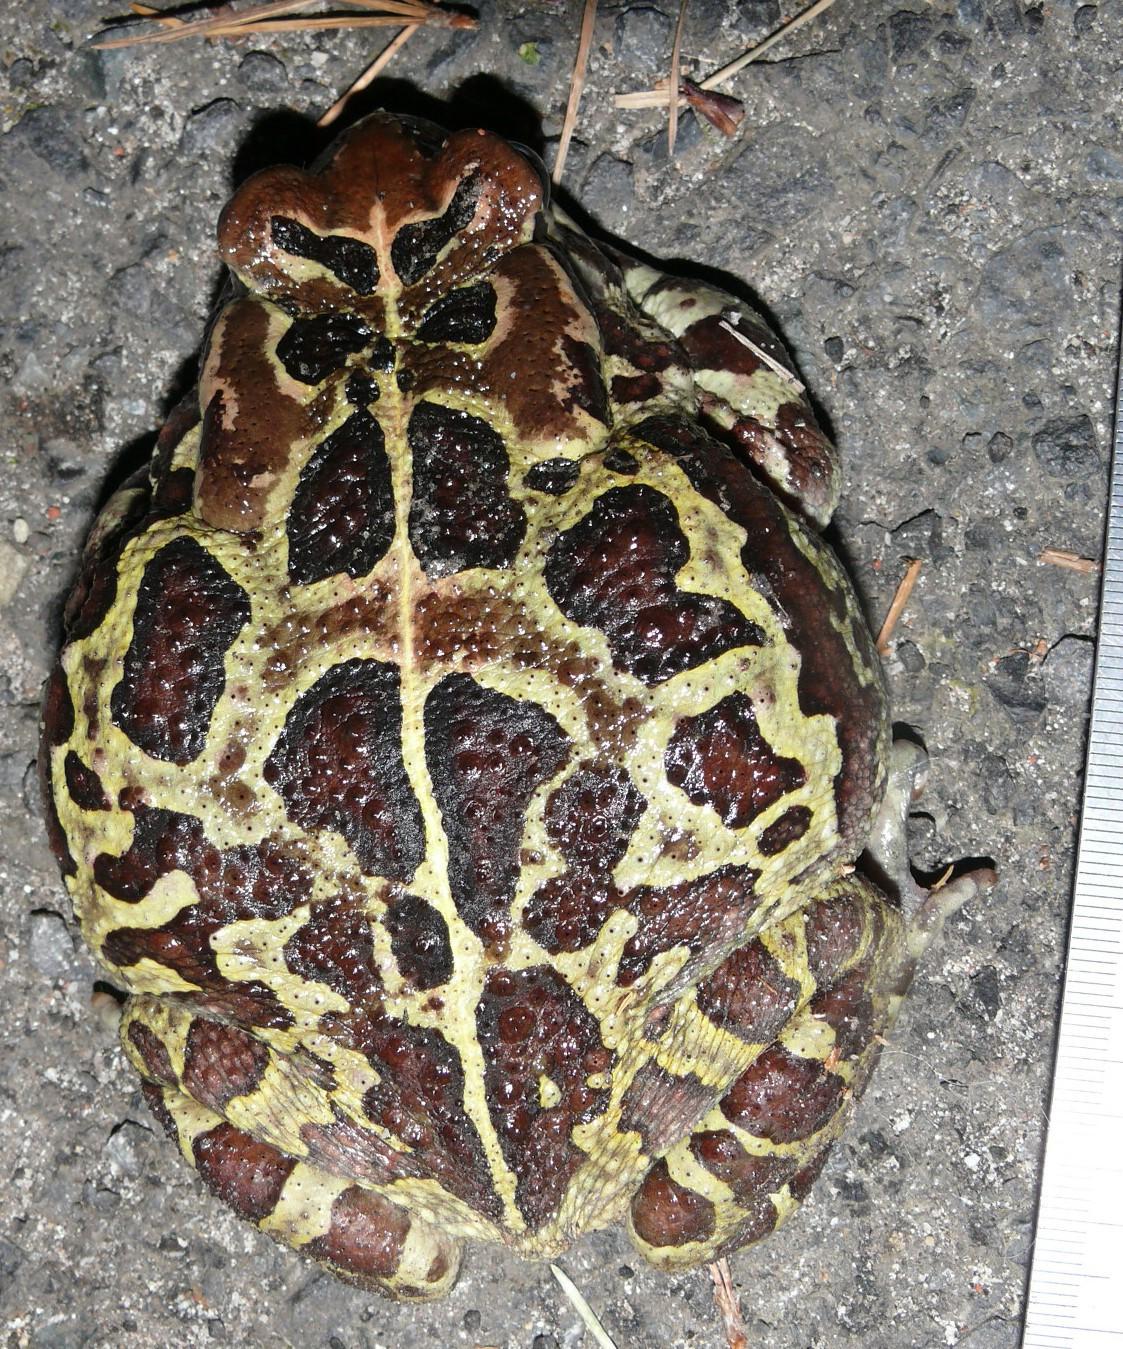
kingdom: Animalia
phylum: Chordata
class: Amphibia
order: Anura
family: Bufonidae
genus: Sclerophrys
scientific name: Sclerophrys pantherina
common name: Panther toad
